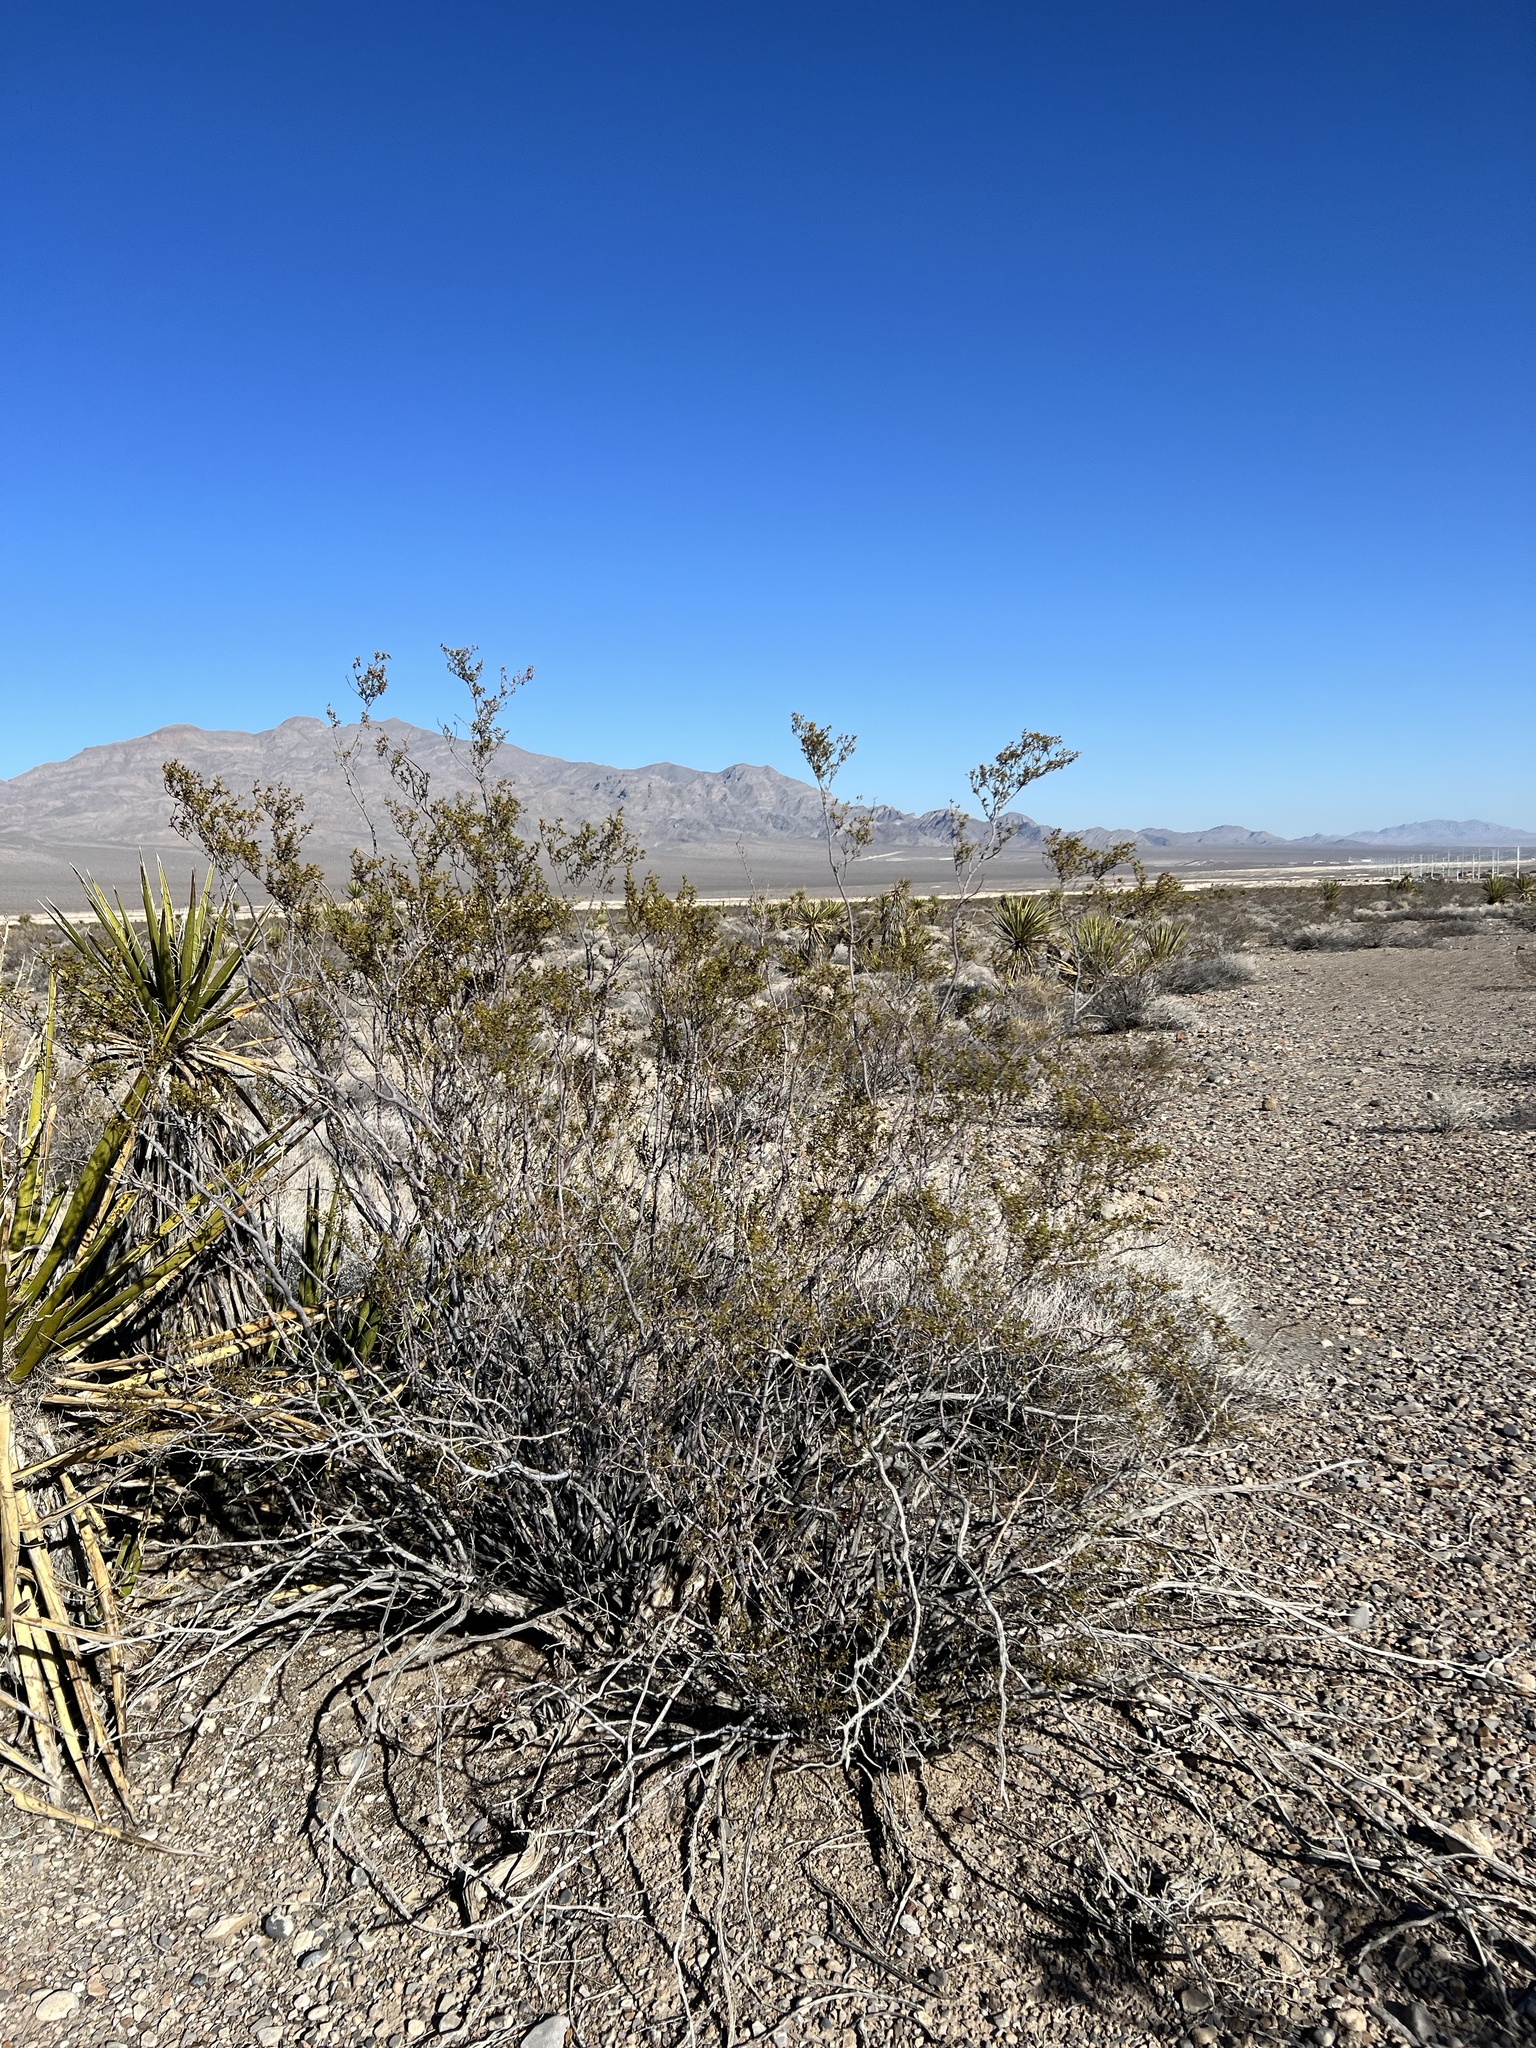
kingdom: Plantae
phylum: Tracheophyta
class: Magnoliopsida
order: Zygophyllales
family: Zygophyllaceae
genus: Larrea
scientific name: Larrea tridentata
